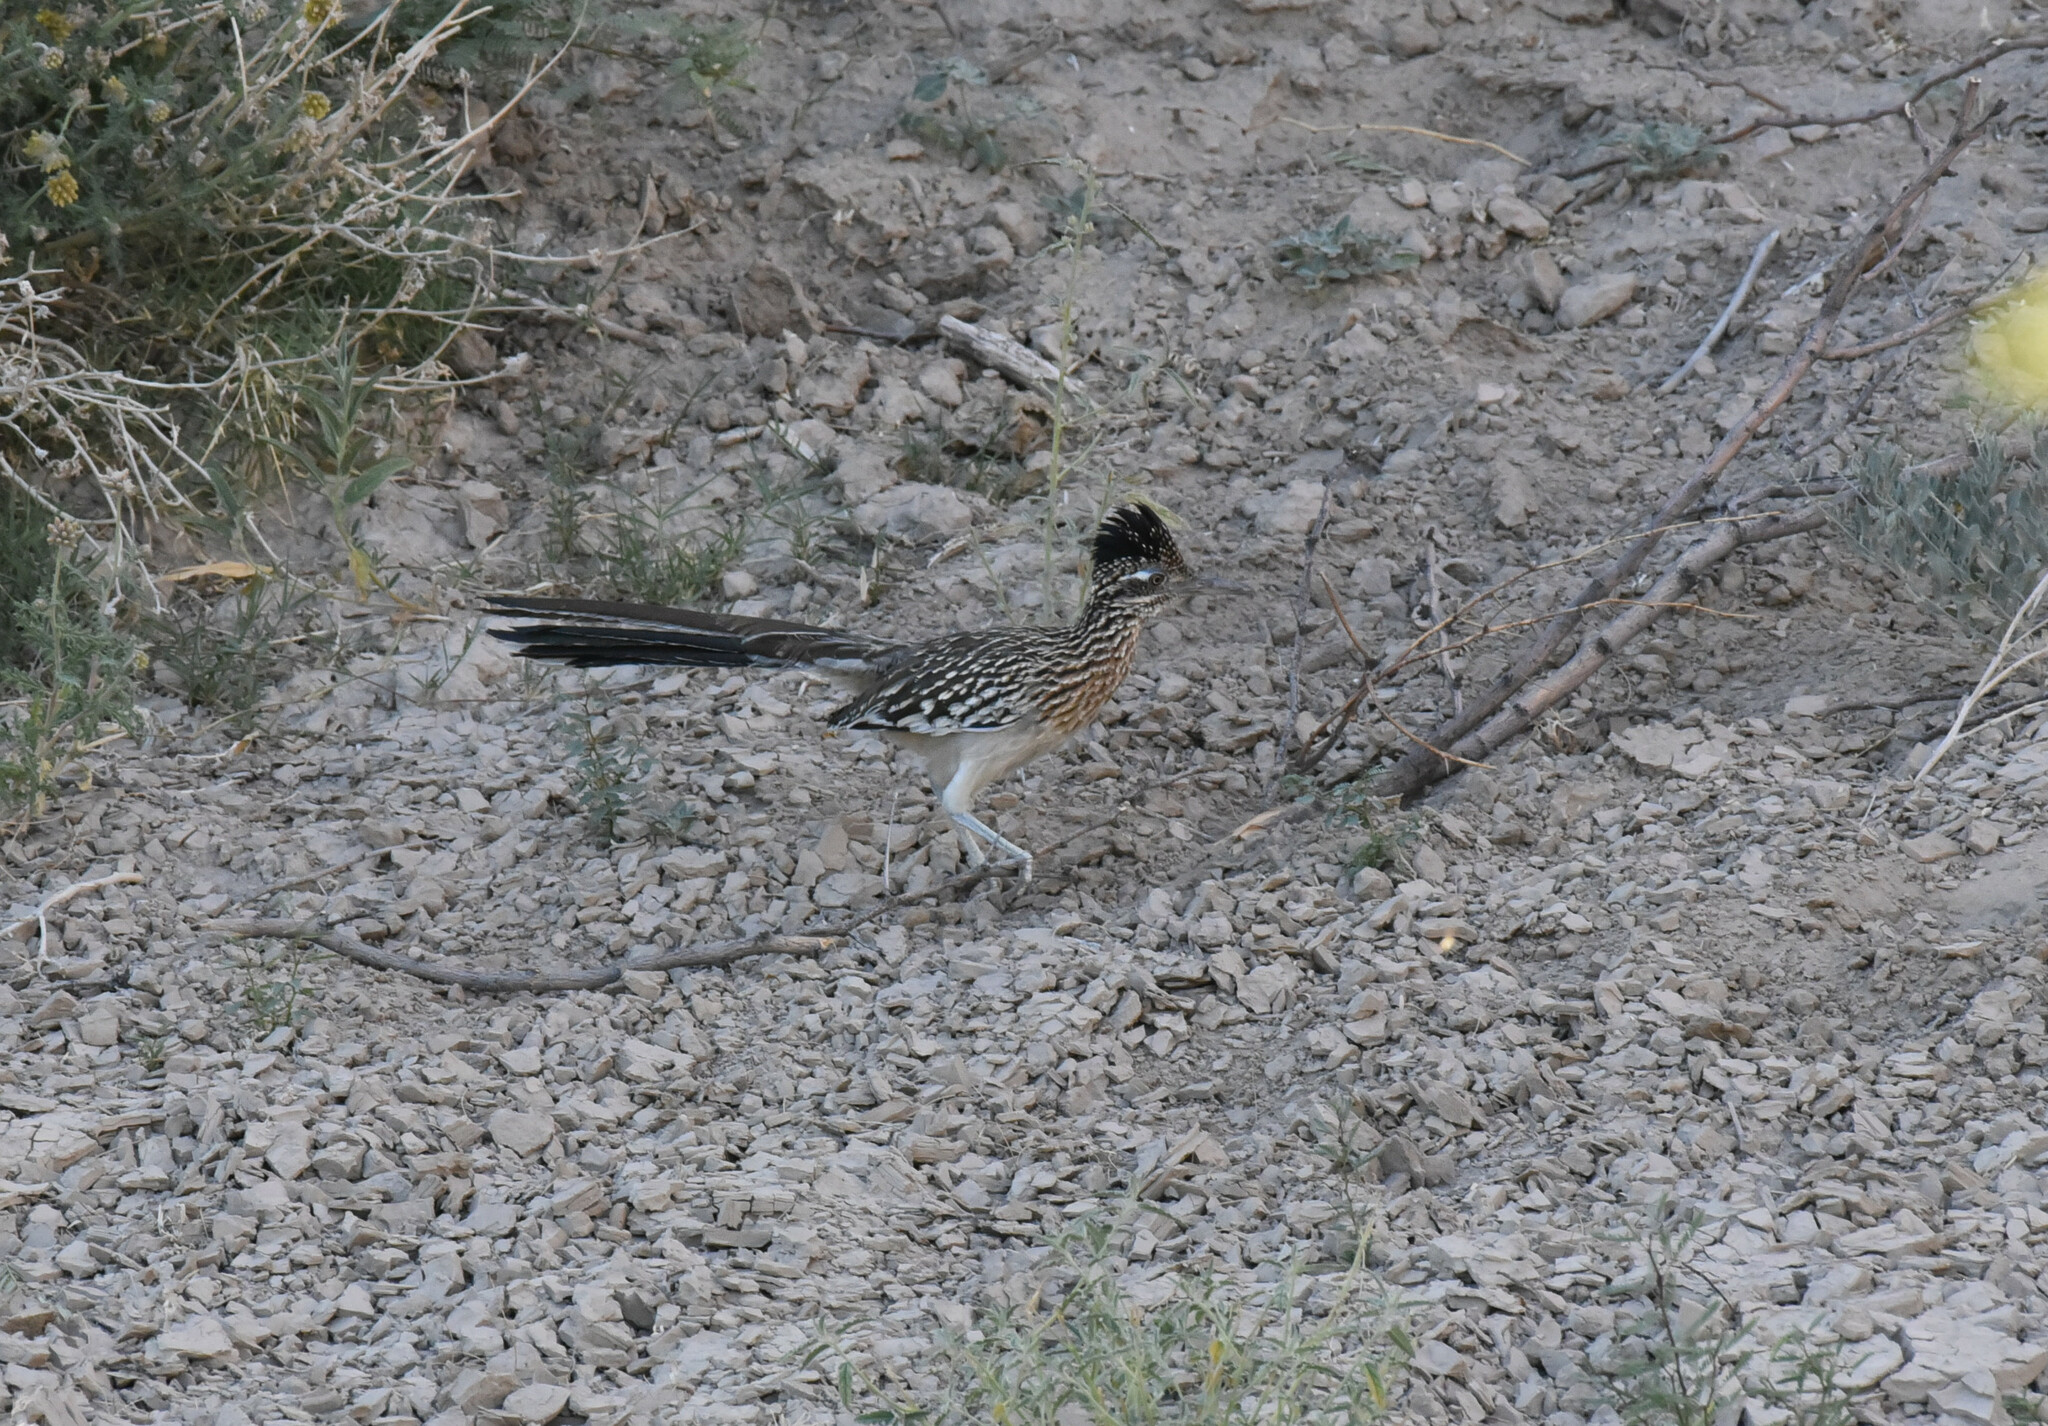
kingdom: Animalia
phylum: Chordata
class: Aves
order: Cuculiformes
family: Cuculidae
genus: Geococcyx
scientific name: Geococcyx californianus
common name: Greater roadrunner
